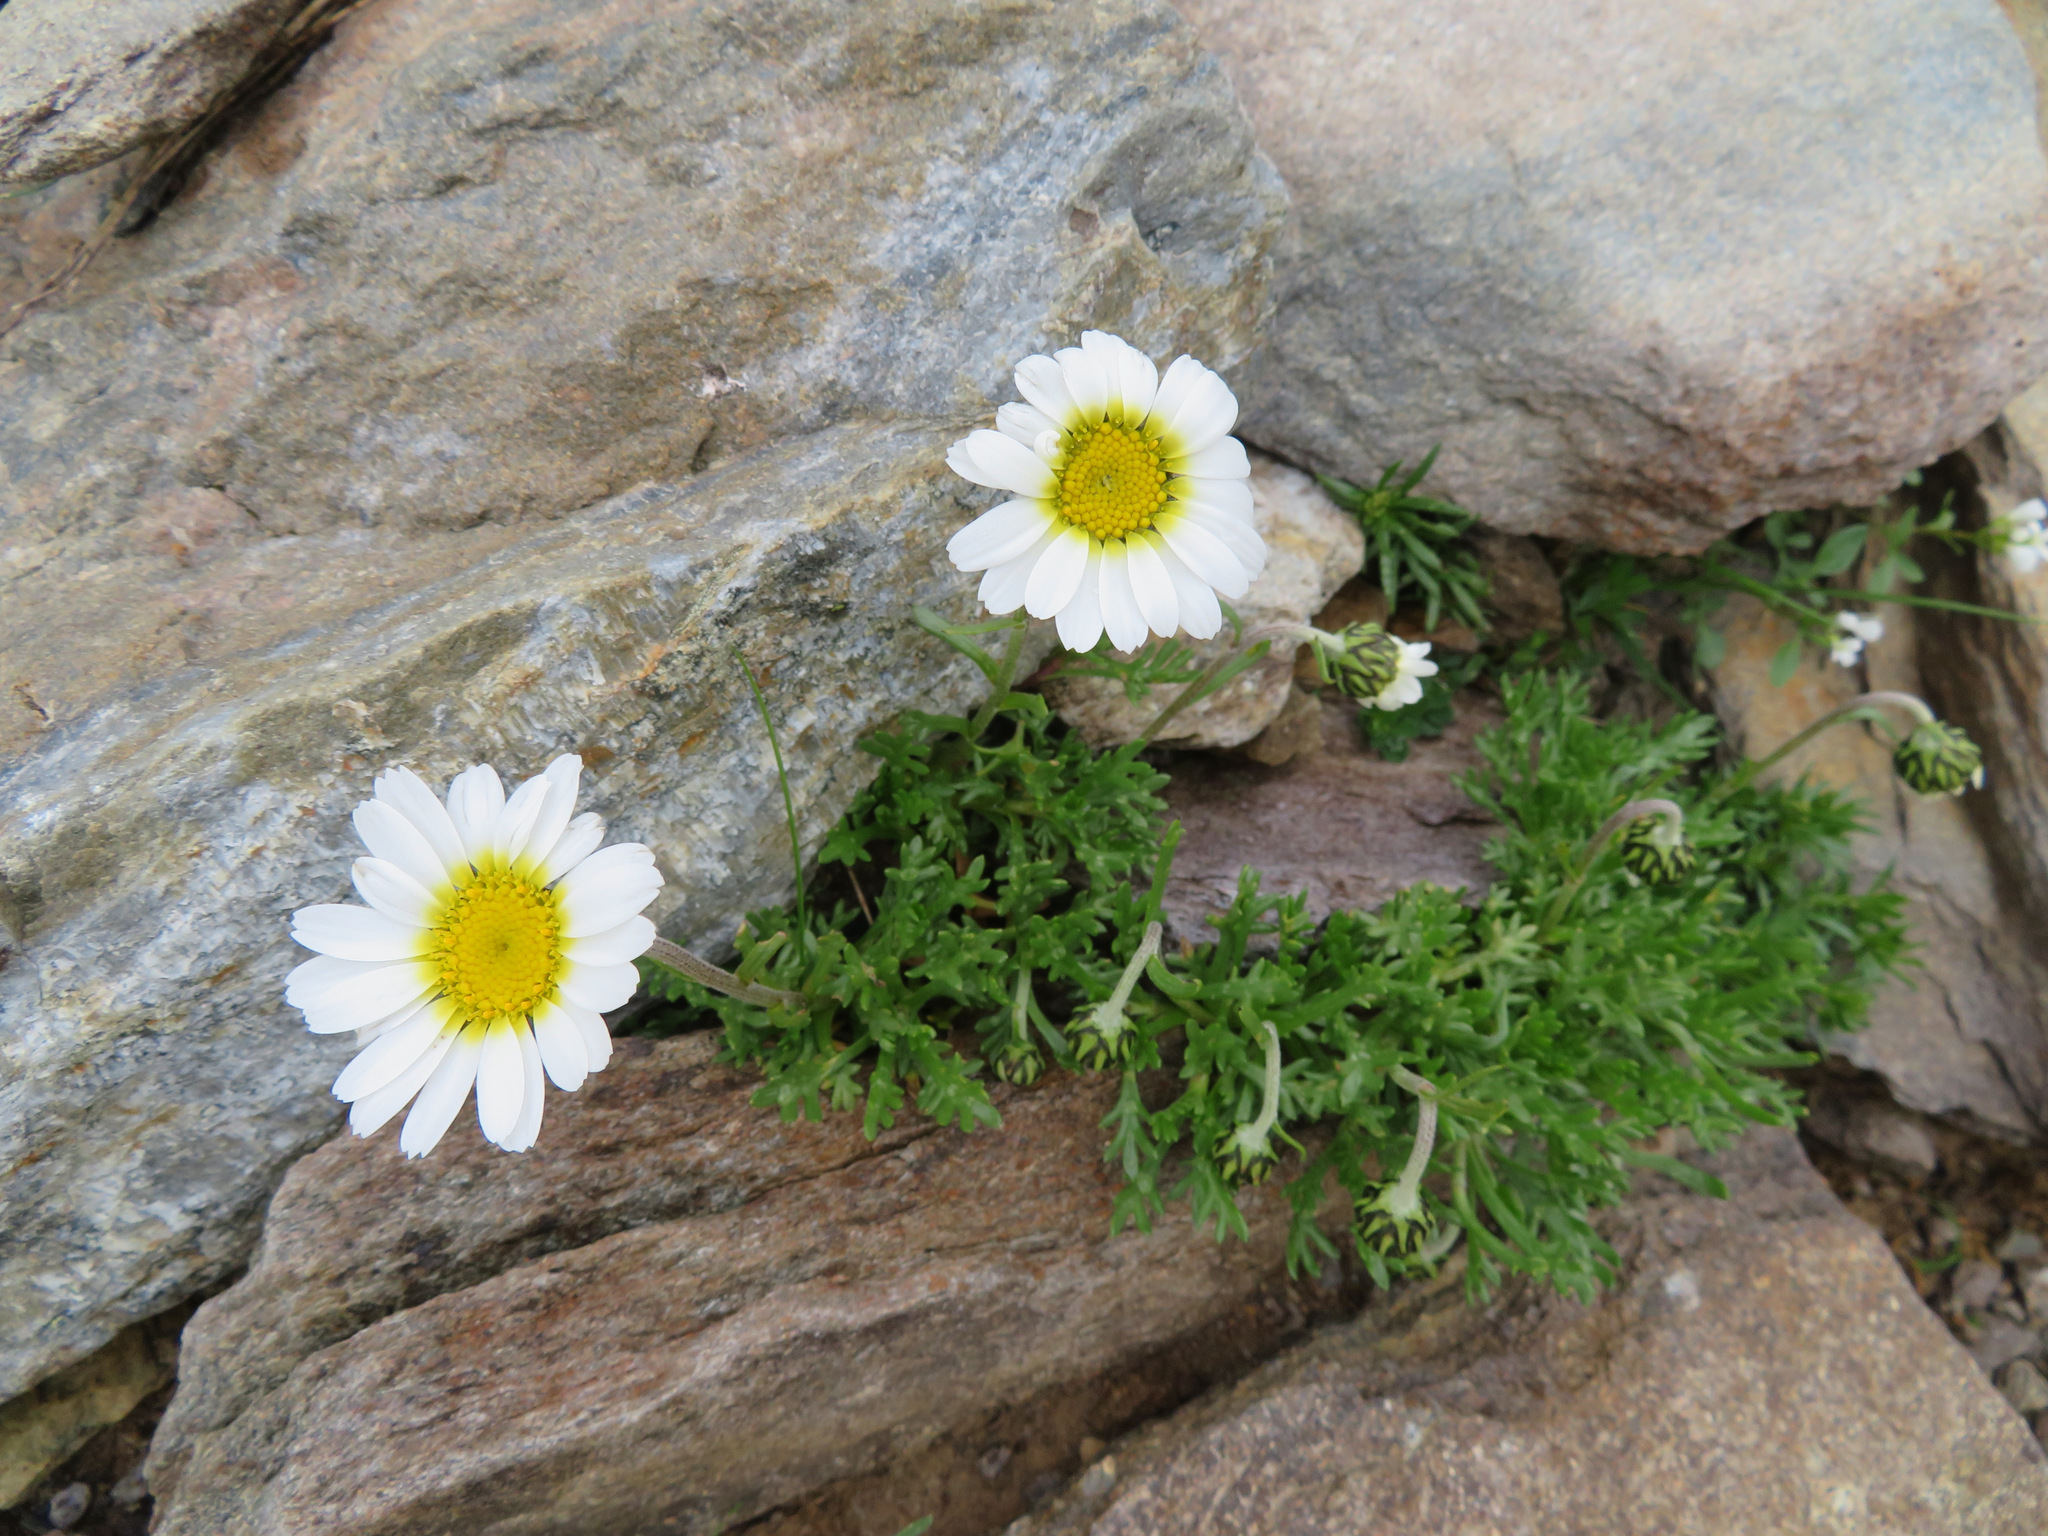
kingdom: Plantae
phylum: Tracheophyta
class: Magnoliopsida
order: Asterales
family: Asteraceae
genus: Leucanthemopsis
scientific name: Leucanthemopsis alpina
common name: Alpine moon daisy
